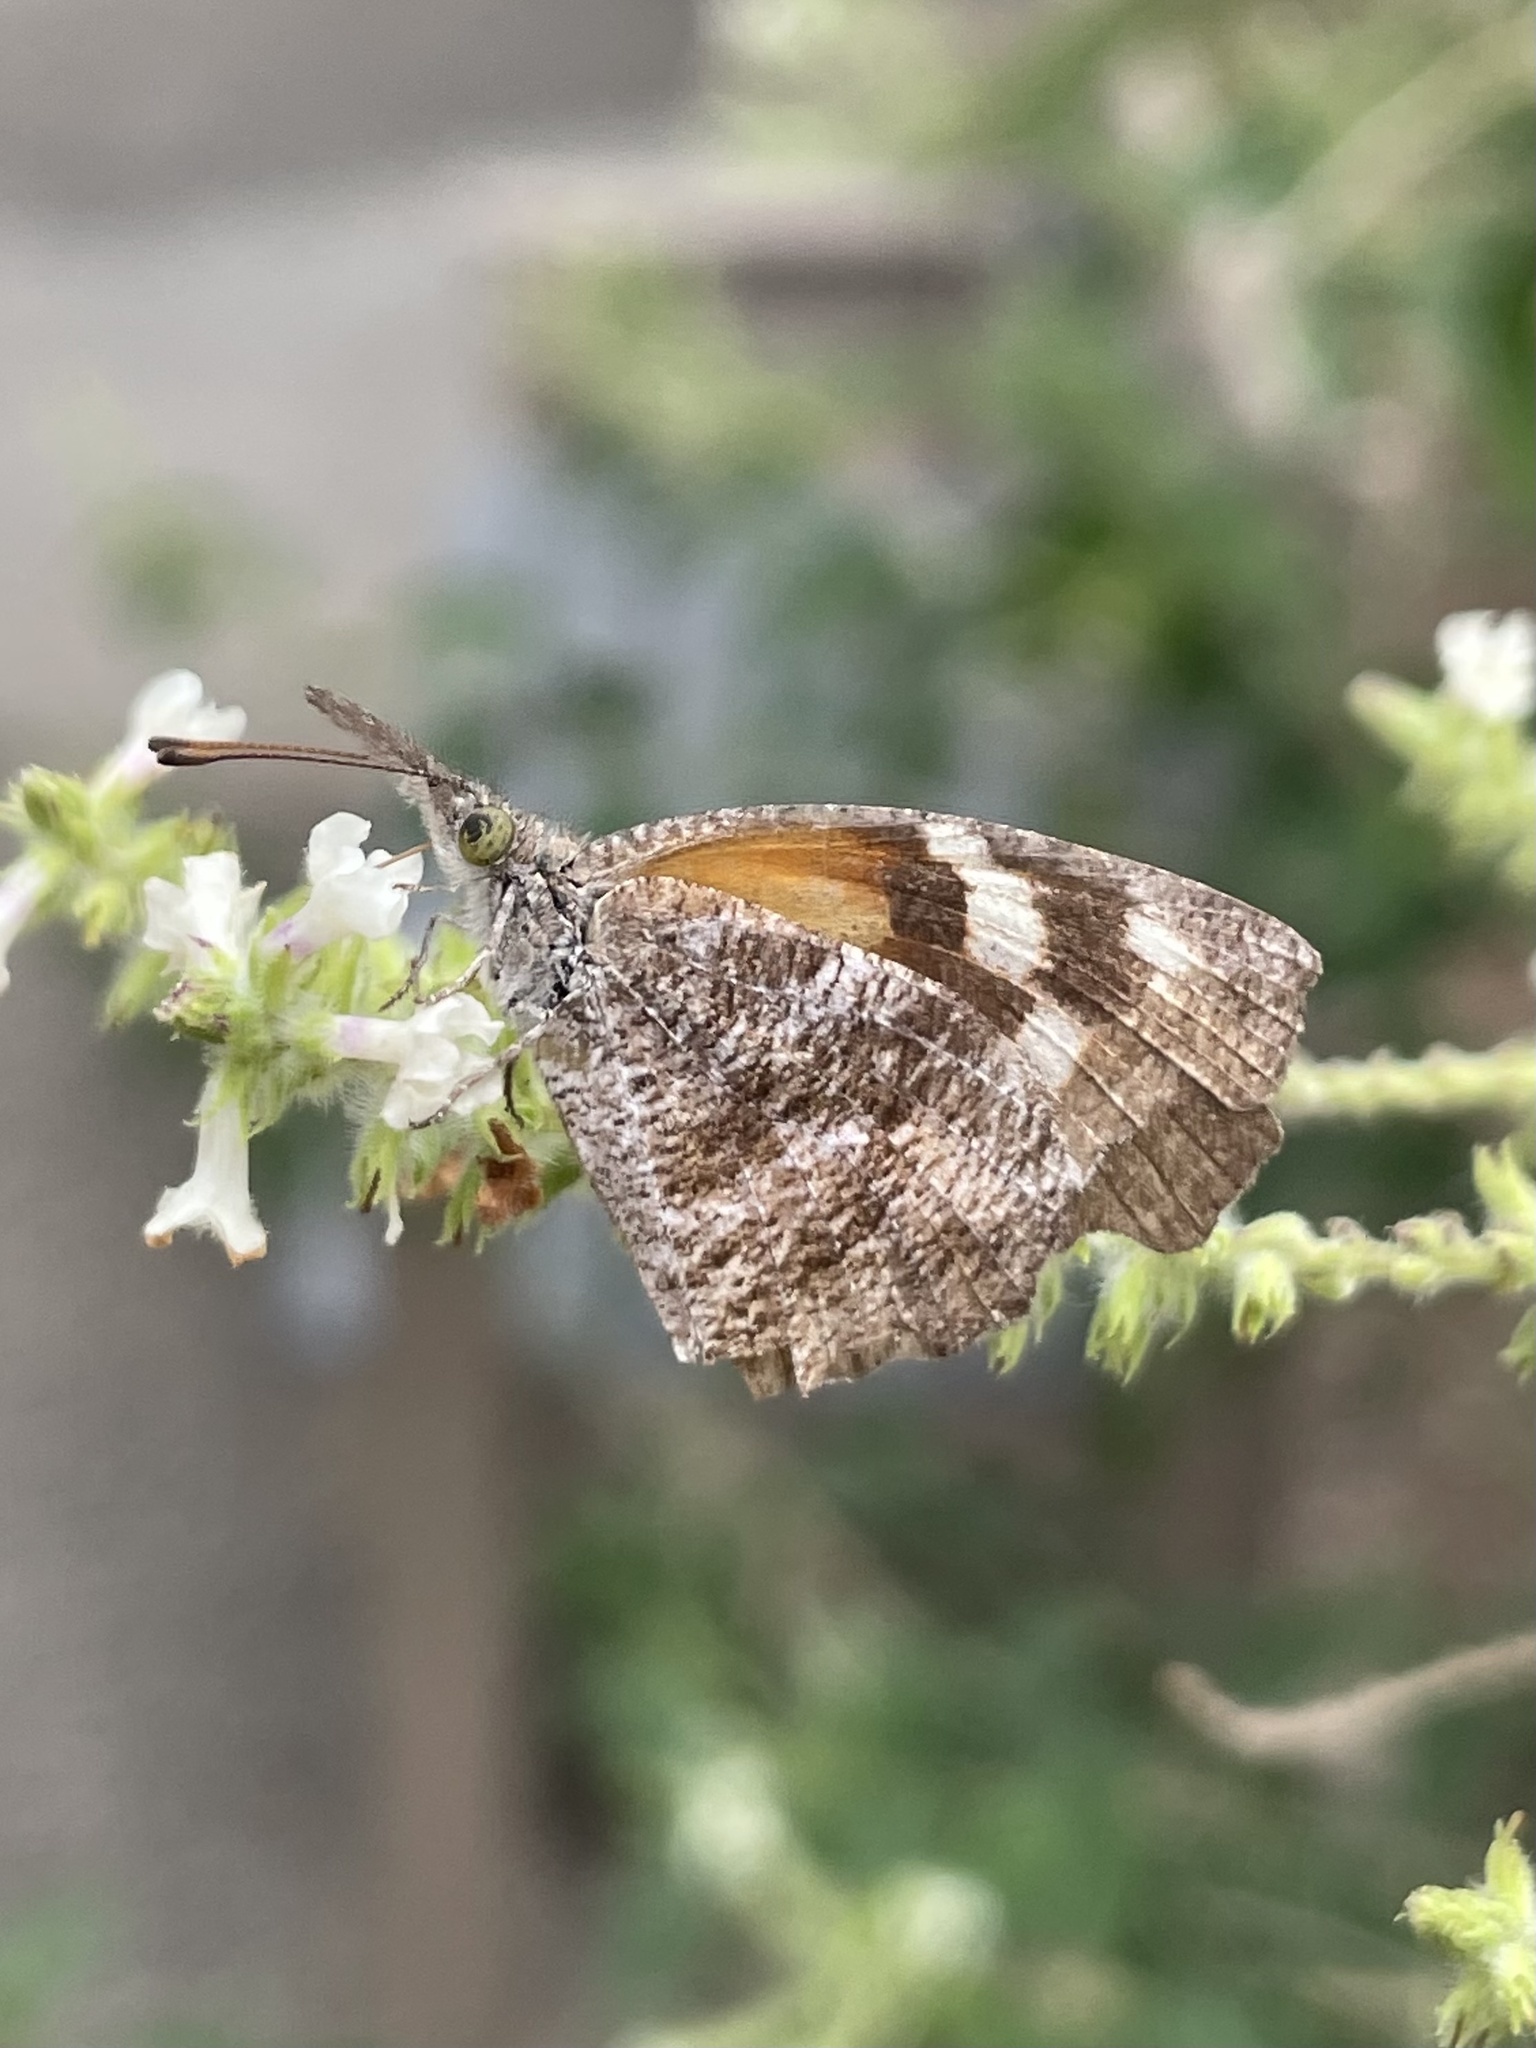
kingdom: Animalia
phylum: Arthropoda
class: Insecta
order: Lepidoptera
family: Nymphalidae
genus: Libytheana
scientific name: Libytheana carinenta
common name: American snout
